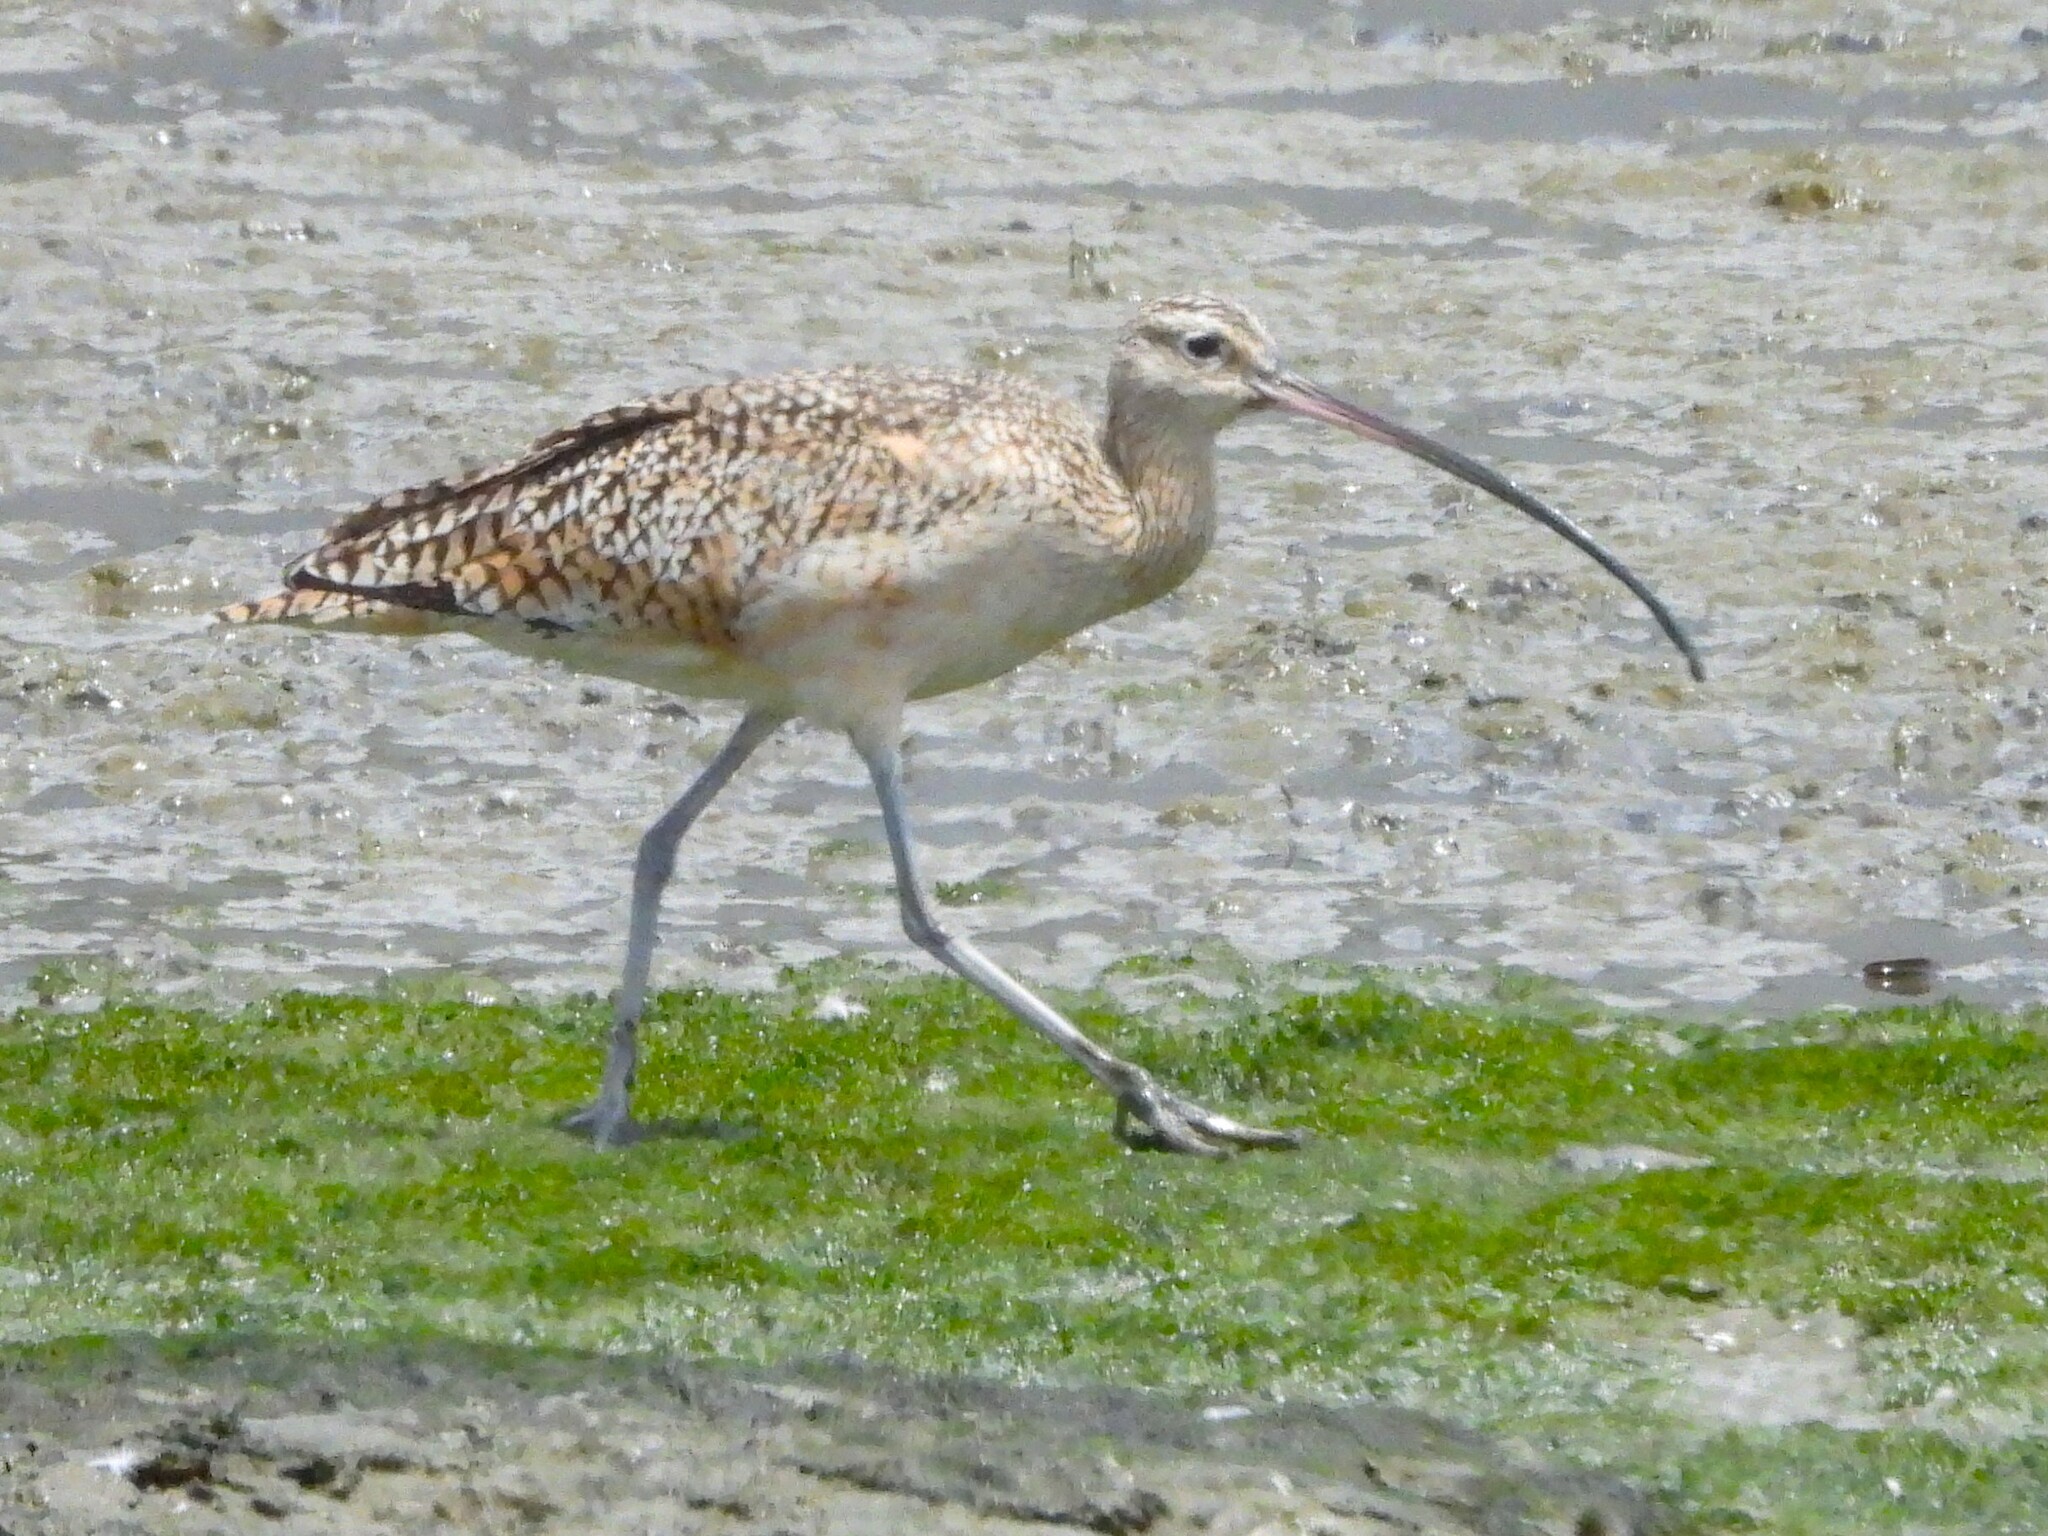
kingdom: Animalia
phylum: Chordata
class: Aves
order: Charadriiformes
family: Scolopacidae
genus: Numenius
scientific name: Numenius americanus
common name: Long-billed curlew
